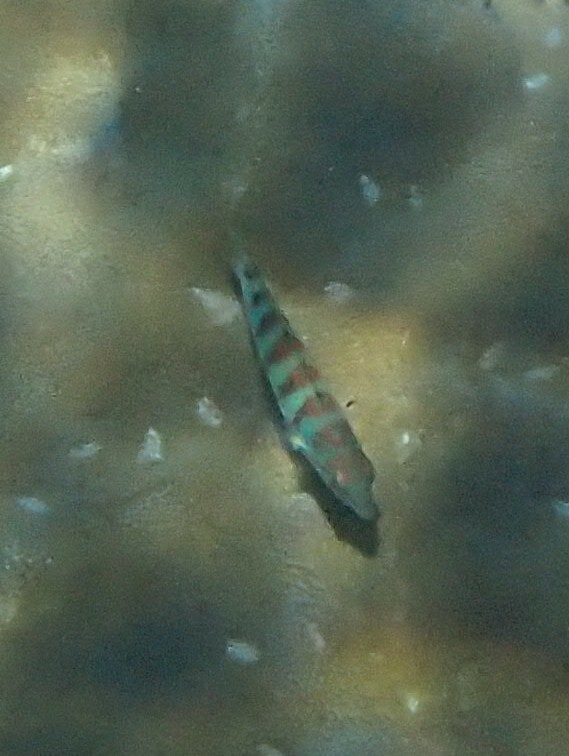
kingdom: Animalia
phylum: Chordata
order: Perciformes
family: Labridae
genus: Thalassoma
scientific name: Thalassoma hardwicke
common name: Sixbar wrasse
